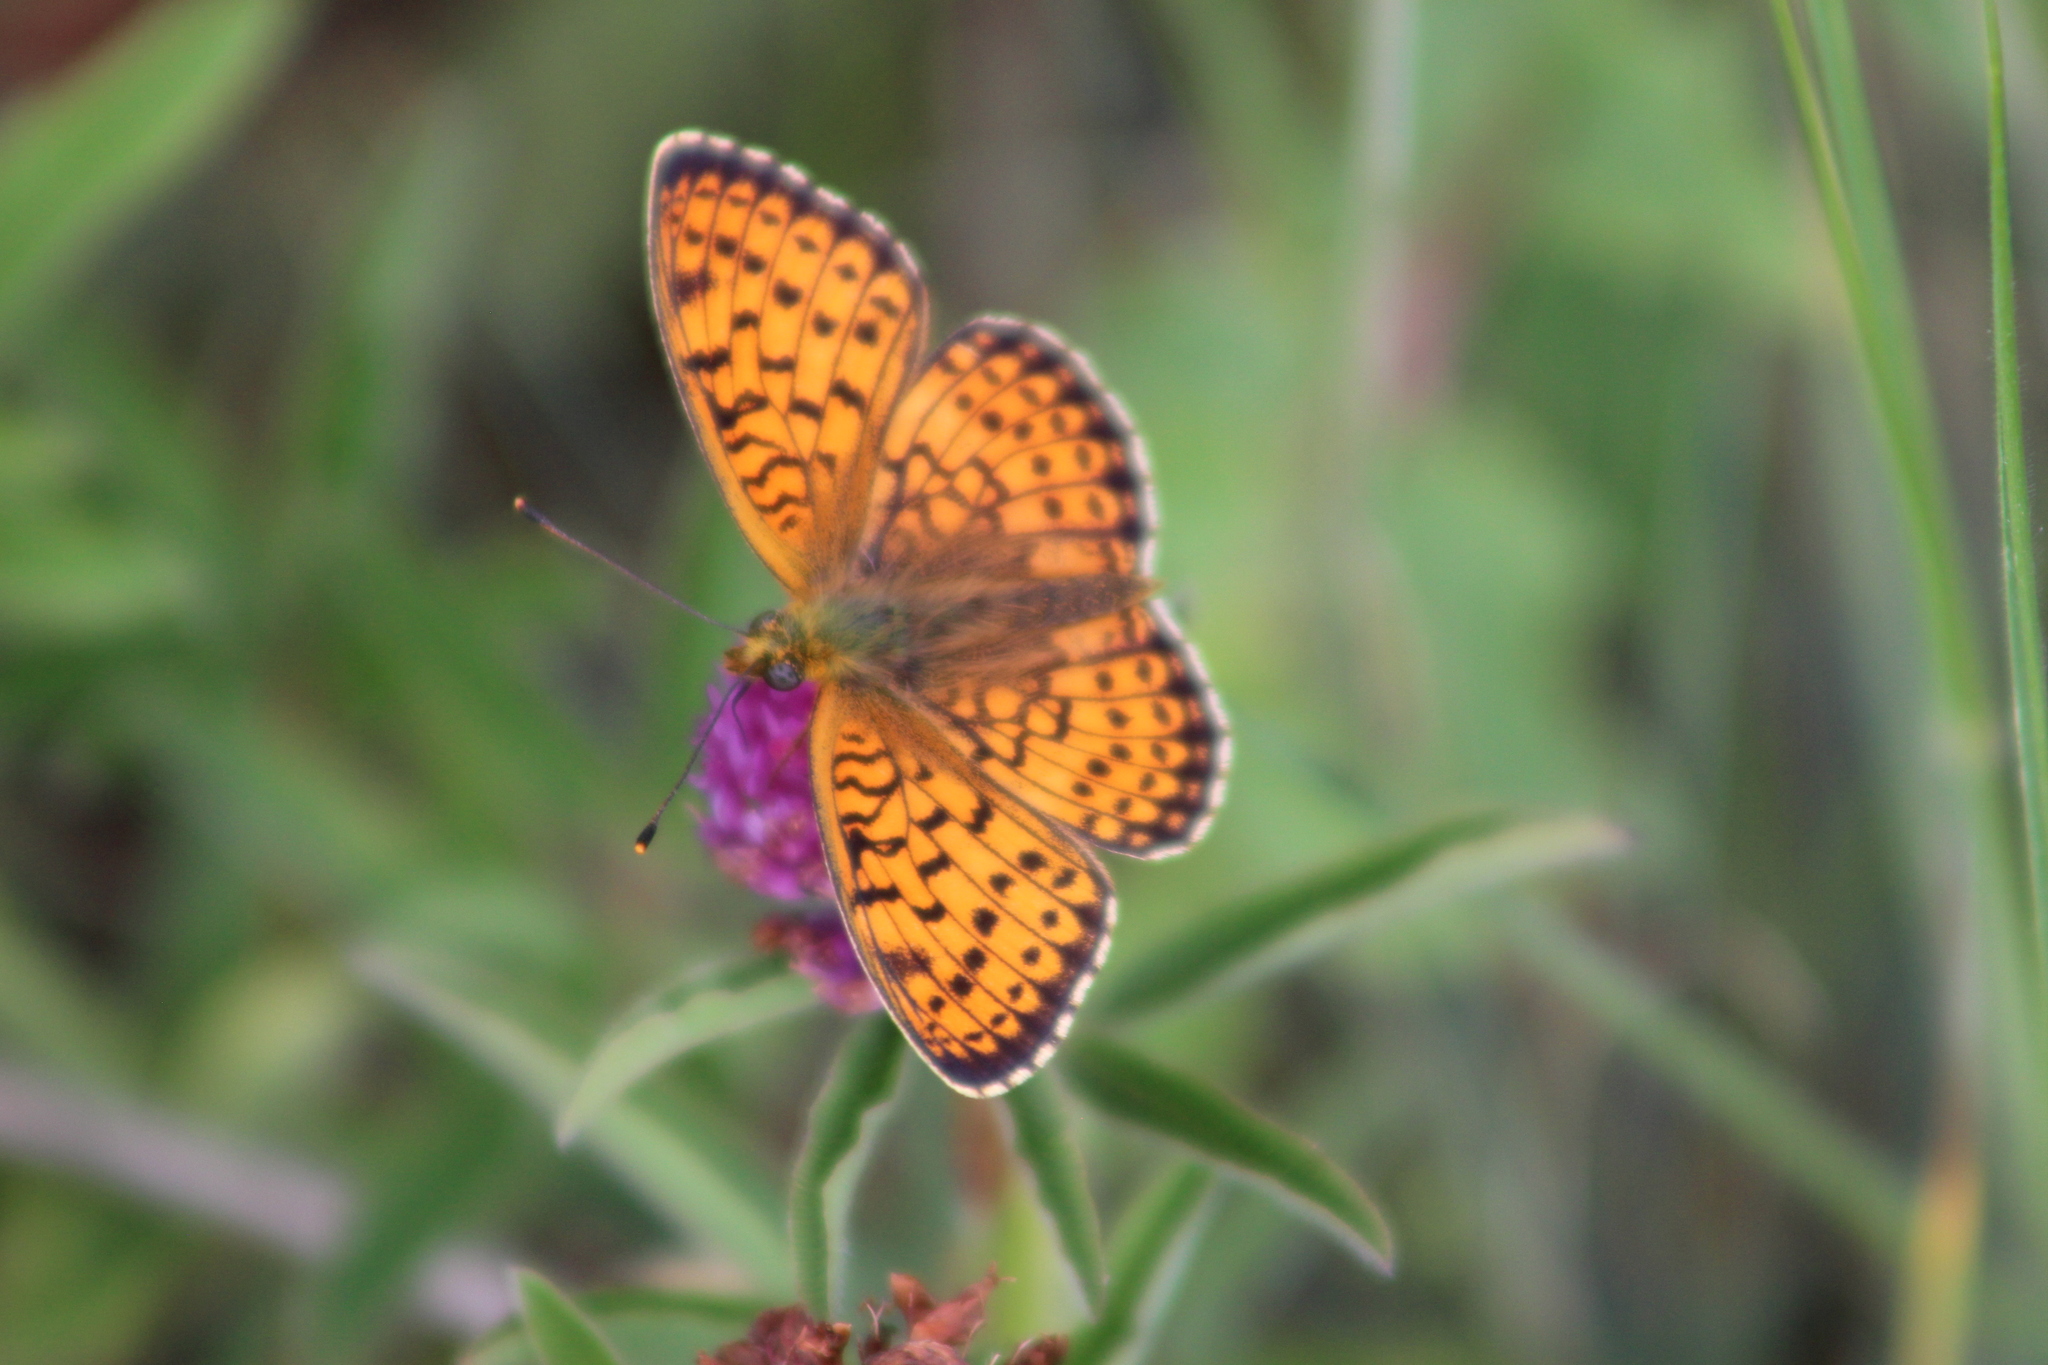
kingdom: Animalia
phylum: Arthropoda
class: Insecta
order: Lepidoptera
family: Nymphalidae
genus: Brenthis
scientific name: Brenthis hecate
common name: Twin-spot fritillary
